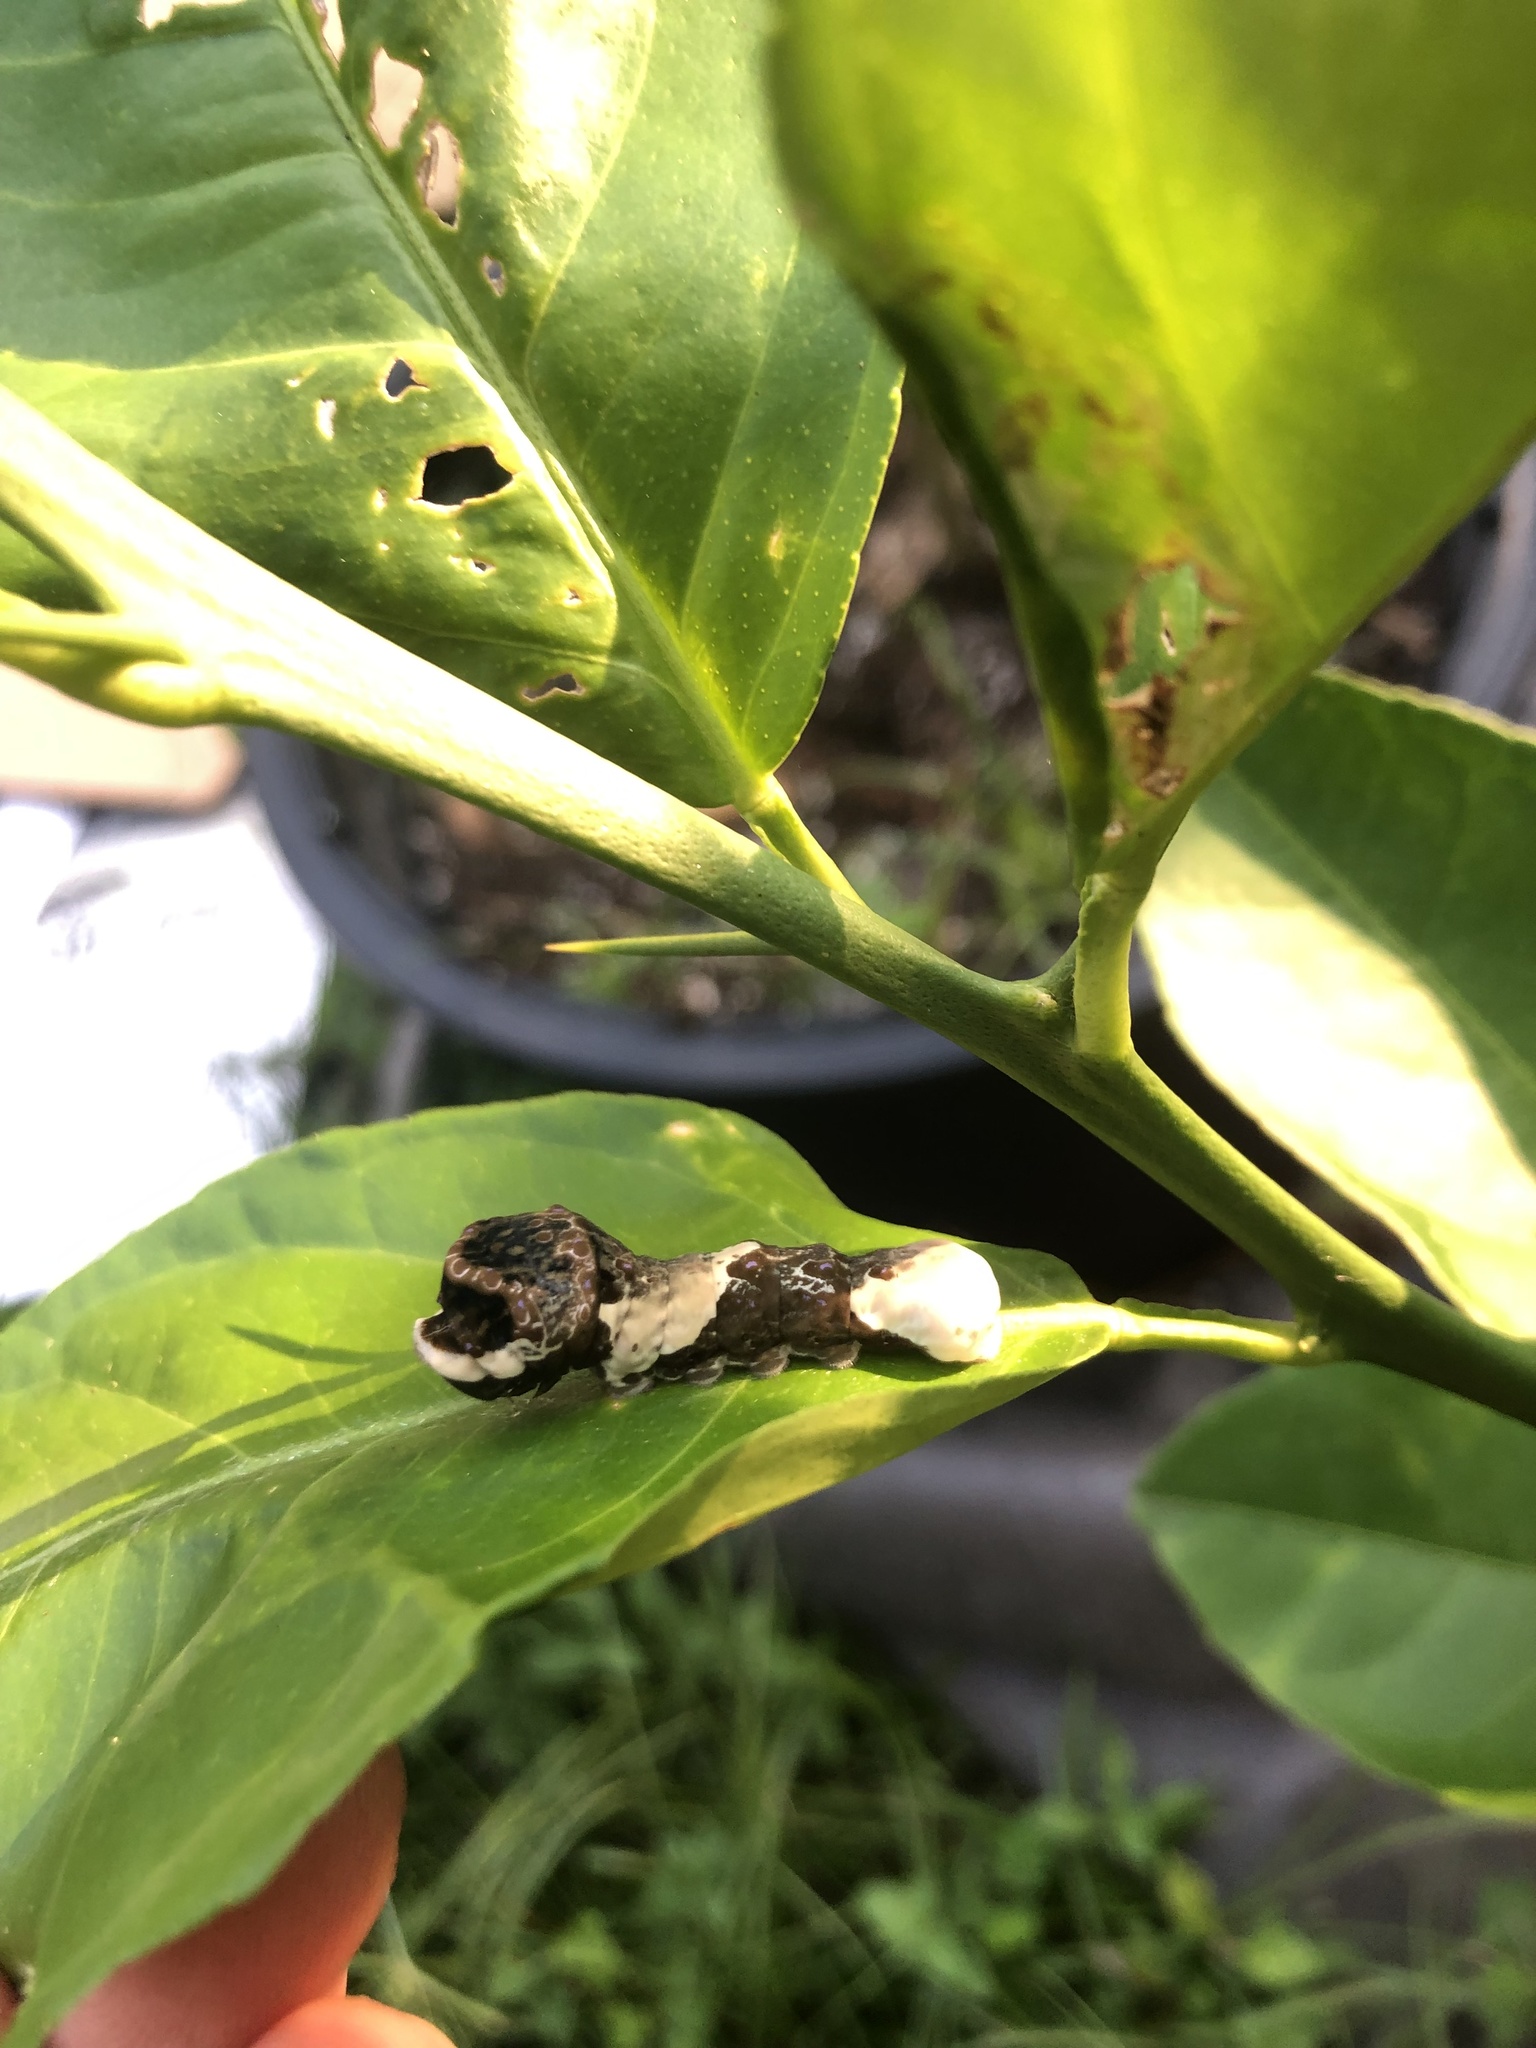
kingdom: Animalia
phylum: Arthropoda
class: Insecta
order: Lepidoptera
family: Papilionidae
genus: Papilio
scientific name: Papilio cresphontes
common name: Giant swallowtail
